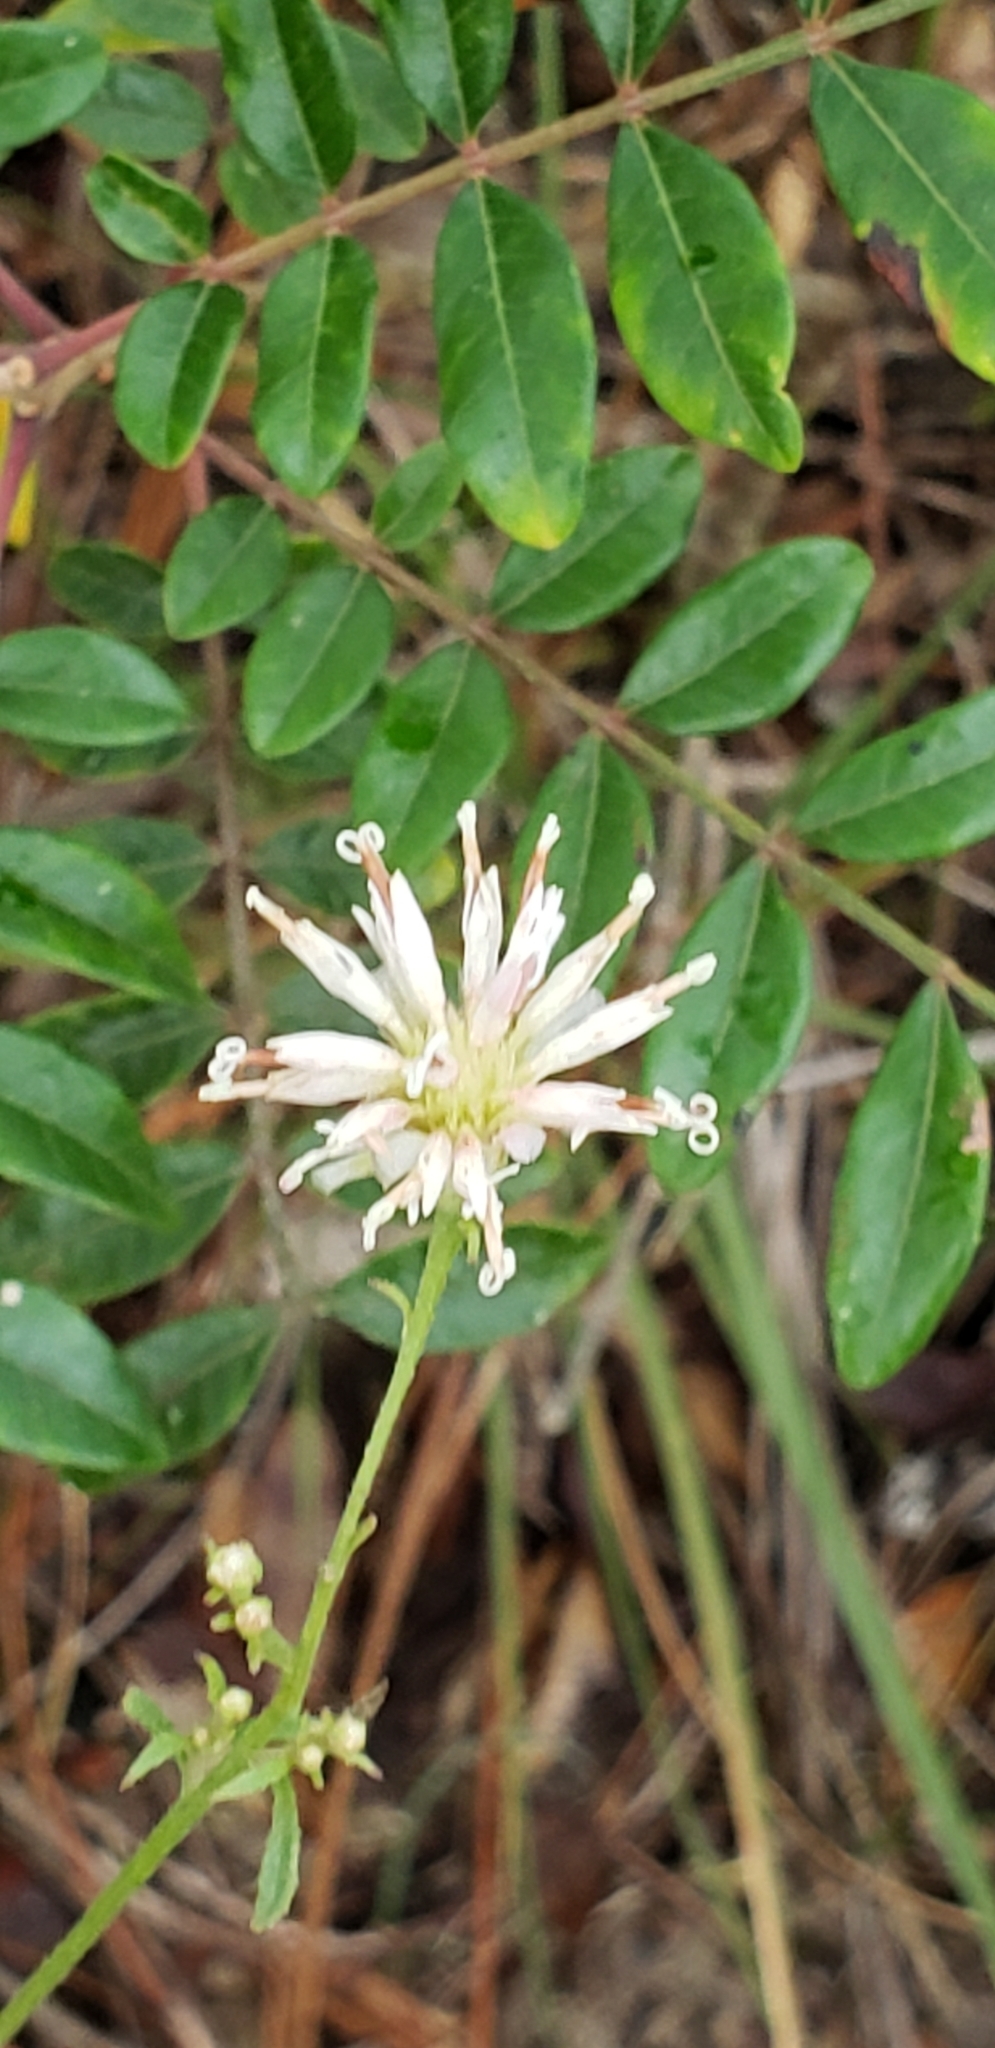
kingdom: Plantae
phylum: Tracheophyta
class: Magnoliopsida
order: Asterales
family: Asteraceae
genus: Palafoxia
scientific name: Palafoxia integrifolia
